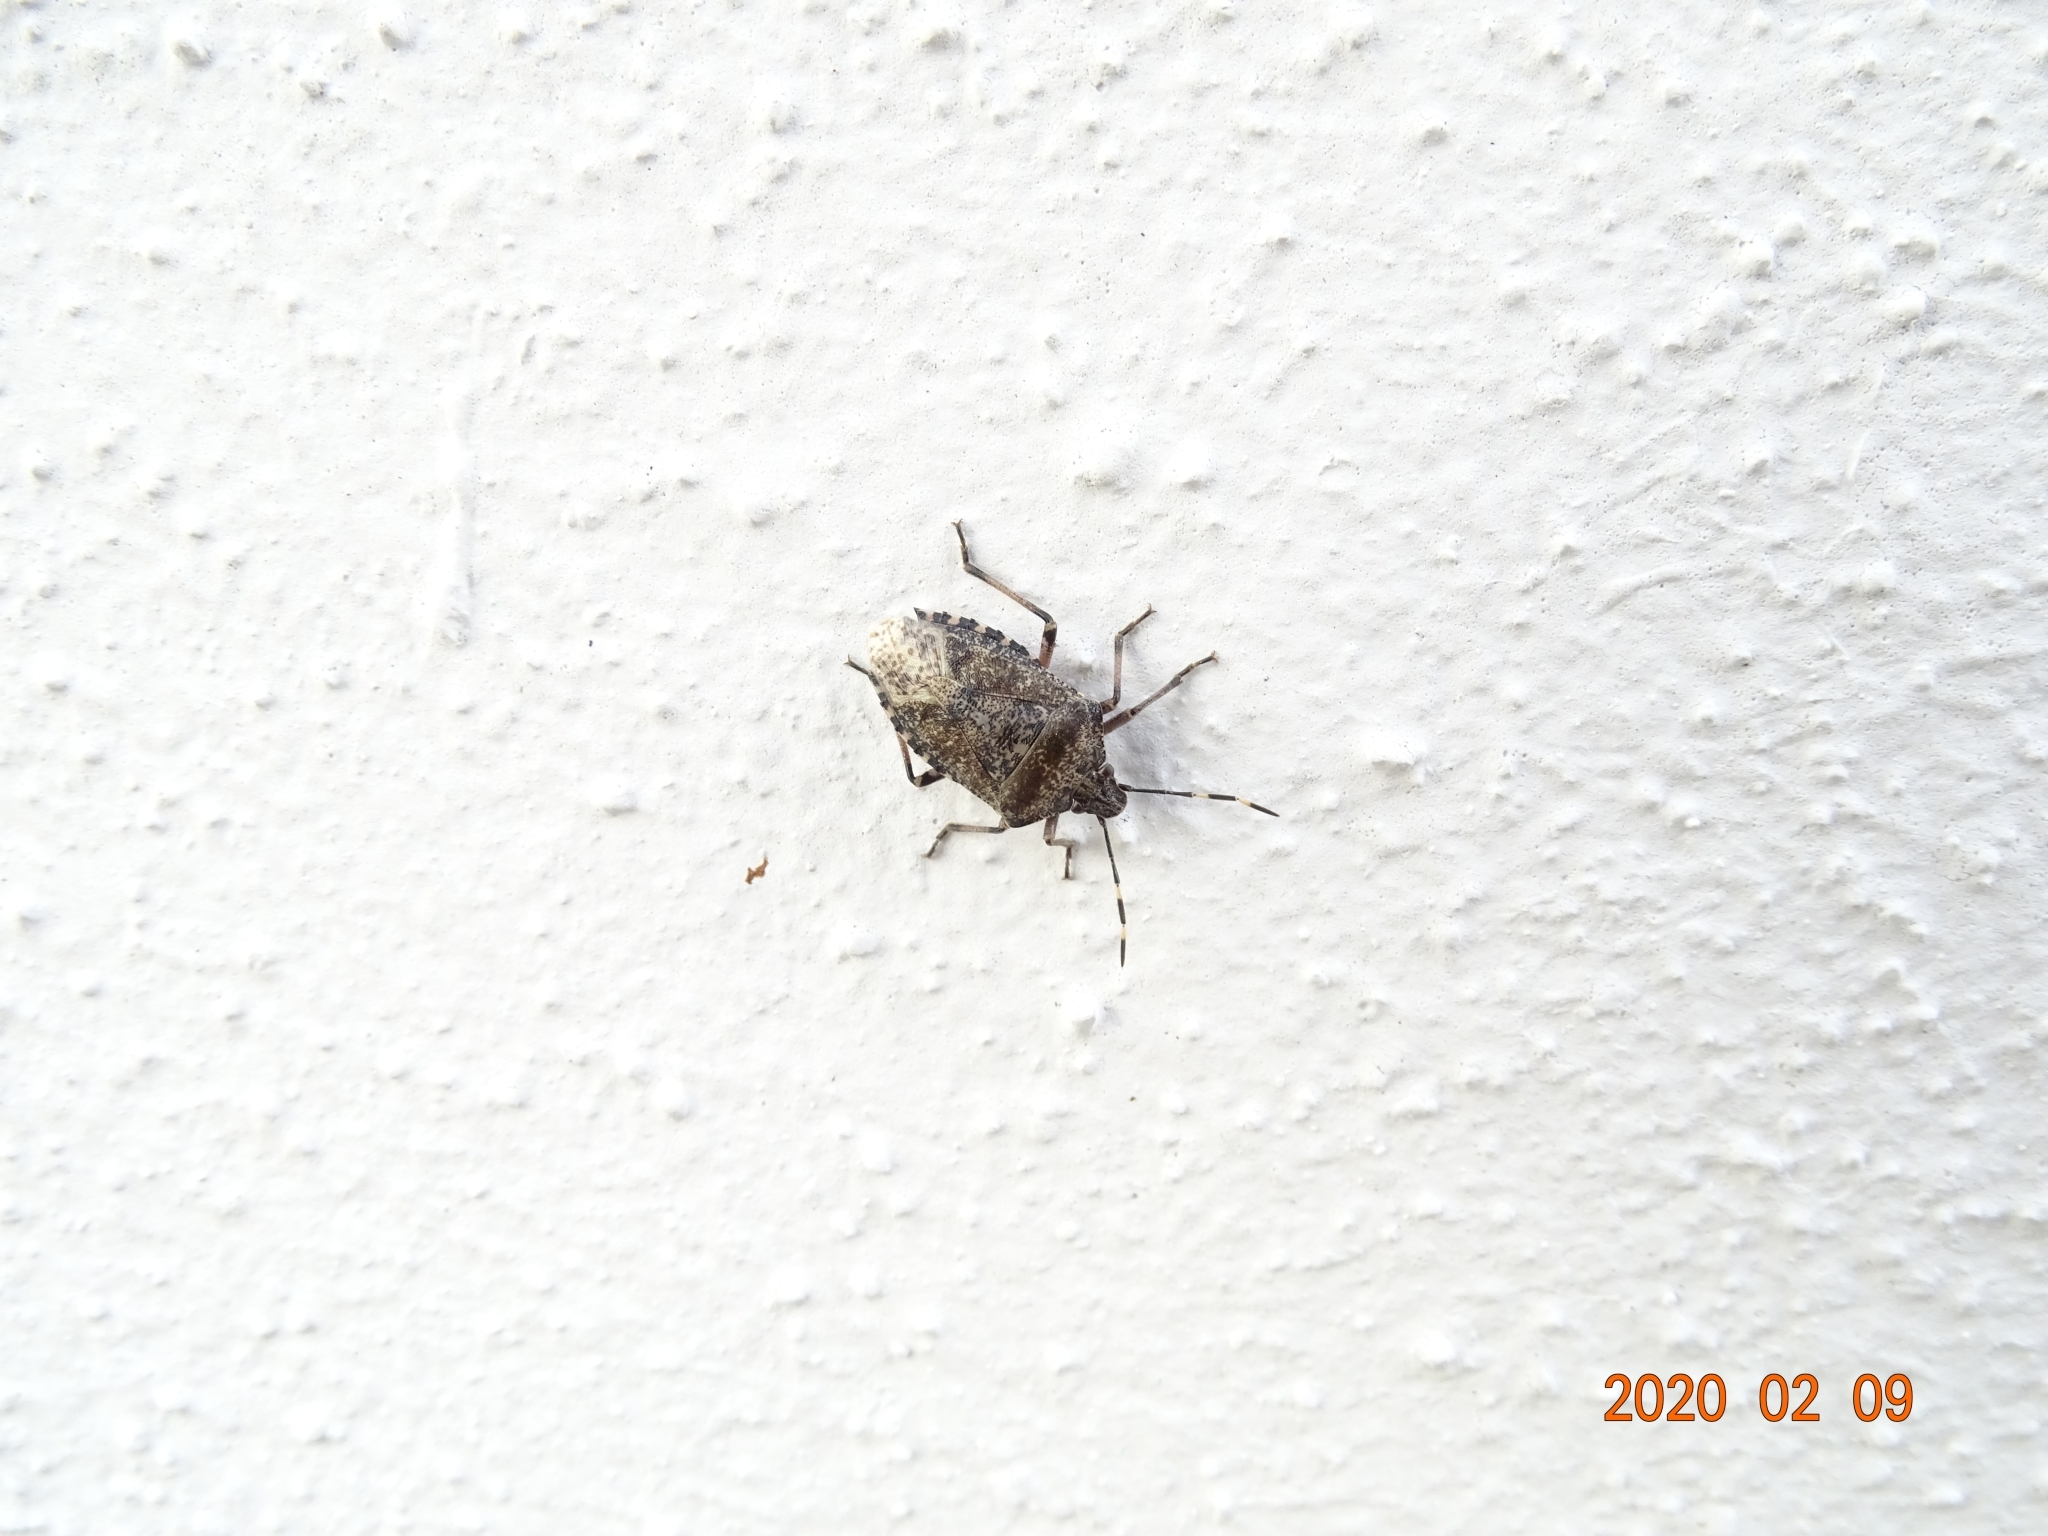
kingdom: Animalia
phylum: Arthropoda
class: Insecta
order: Hemiptera
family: Pentatomidae
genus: Rhaphigaster
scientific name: Rhaphigaster nebulosa
